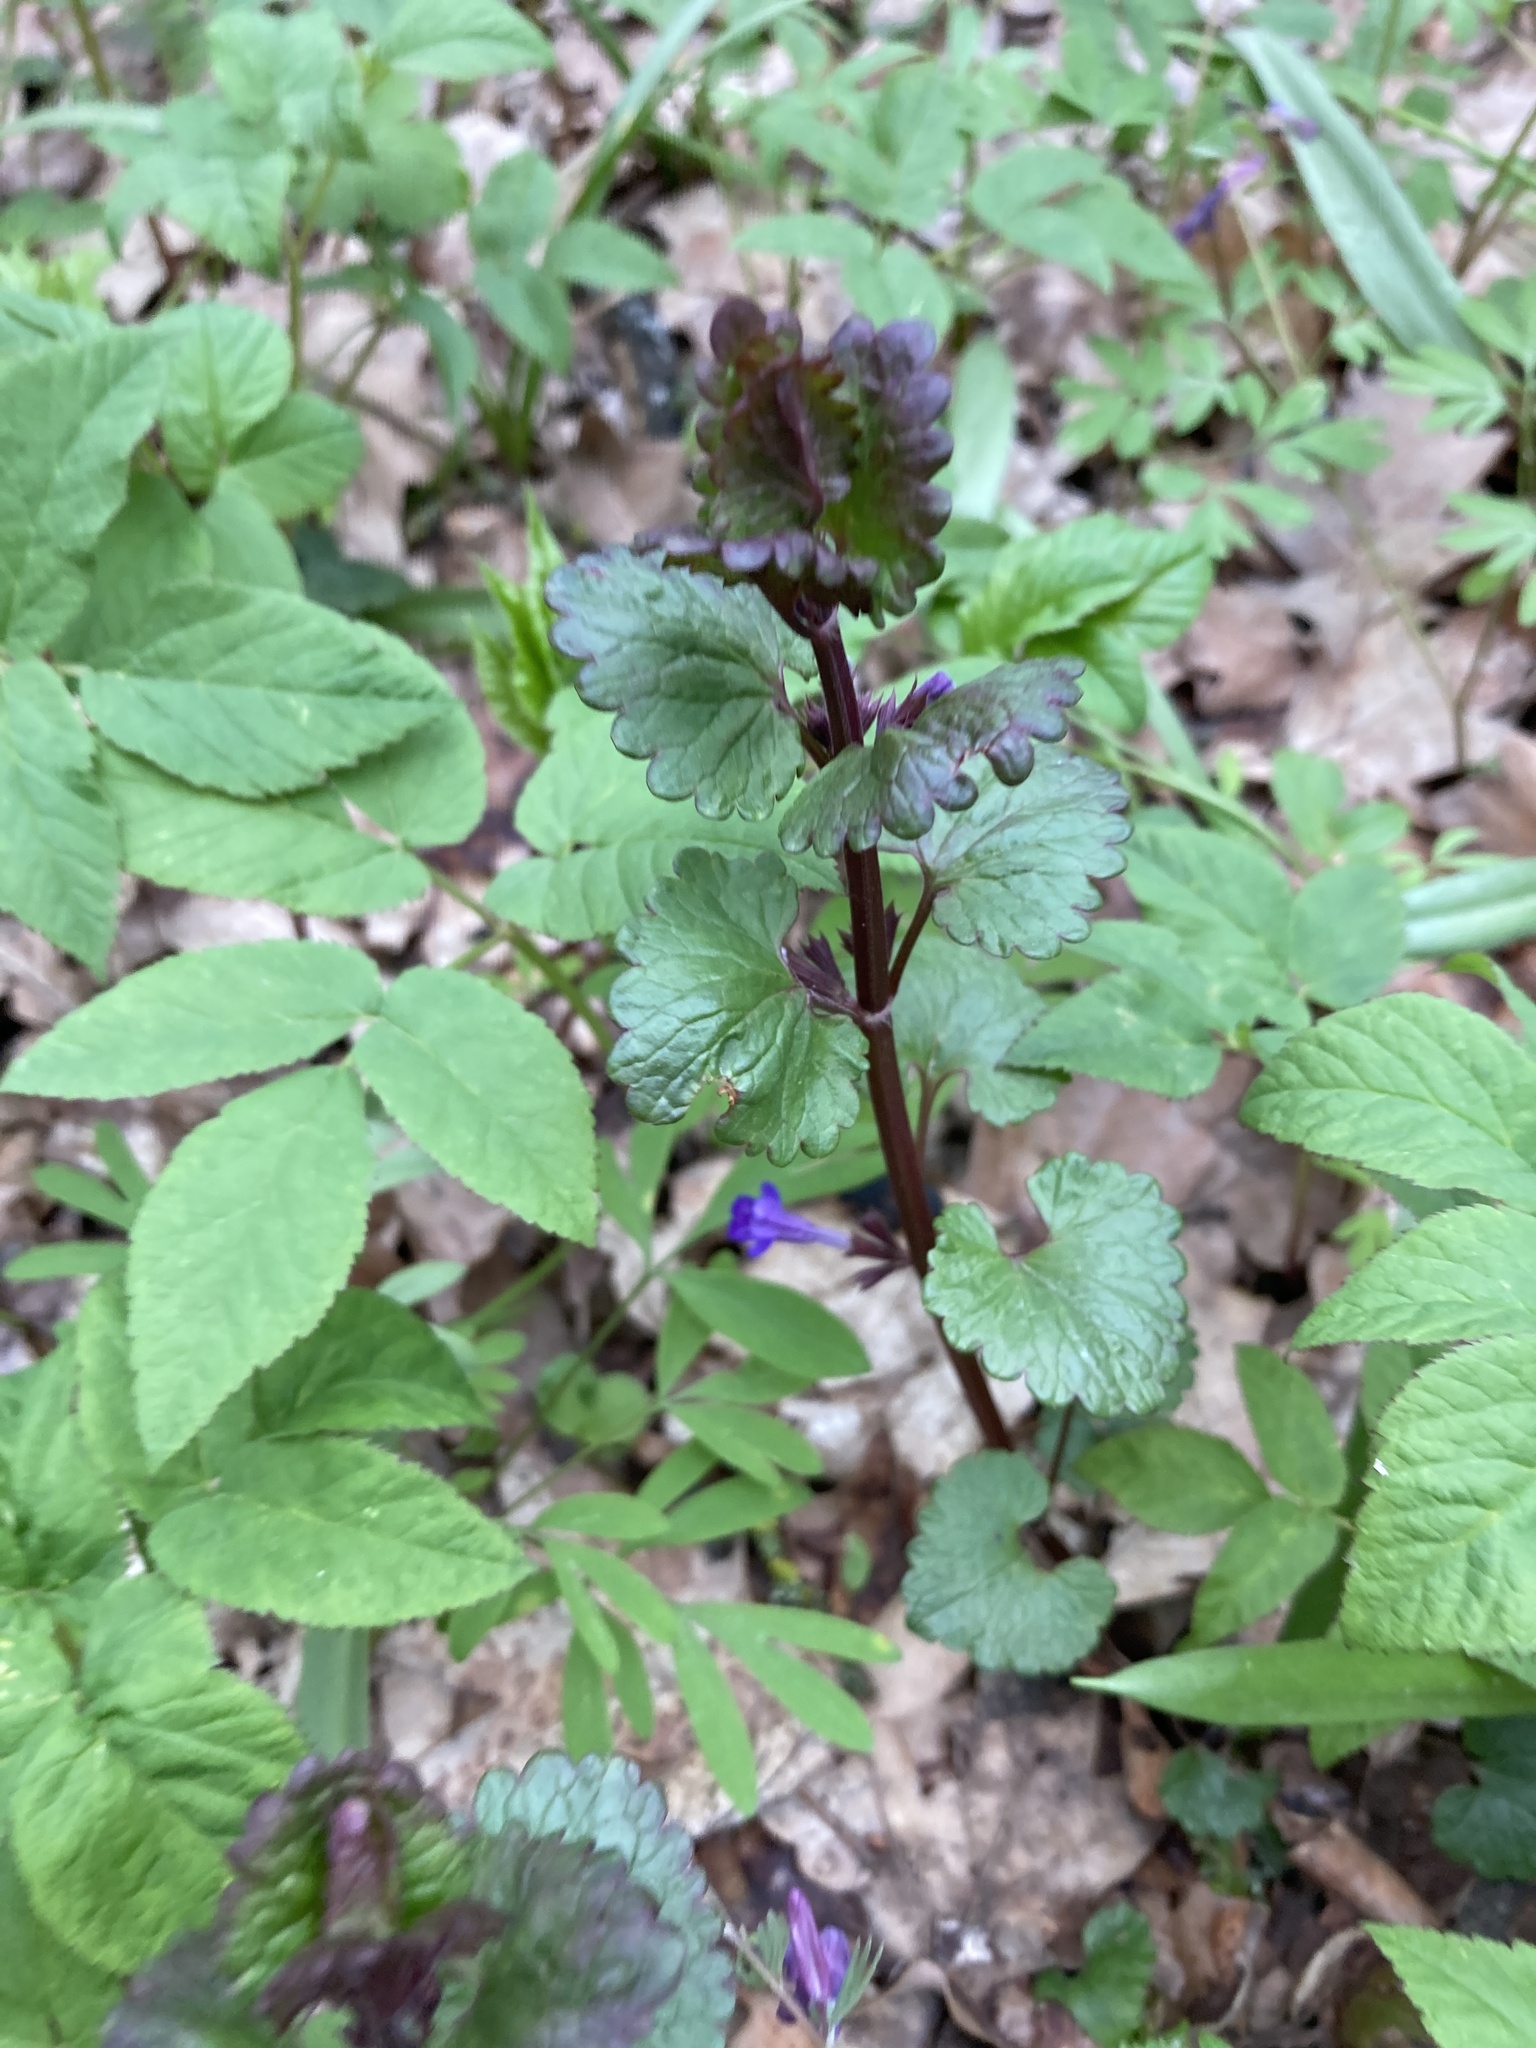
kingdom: Plantae
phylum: Tracheophyta
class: Magnoliopsida
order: Lamiales
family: Lamiaceae
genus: Glechoma
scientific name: Glechoma hederacea
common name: Ground ivy
